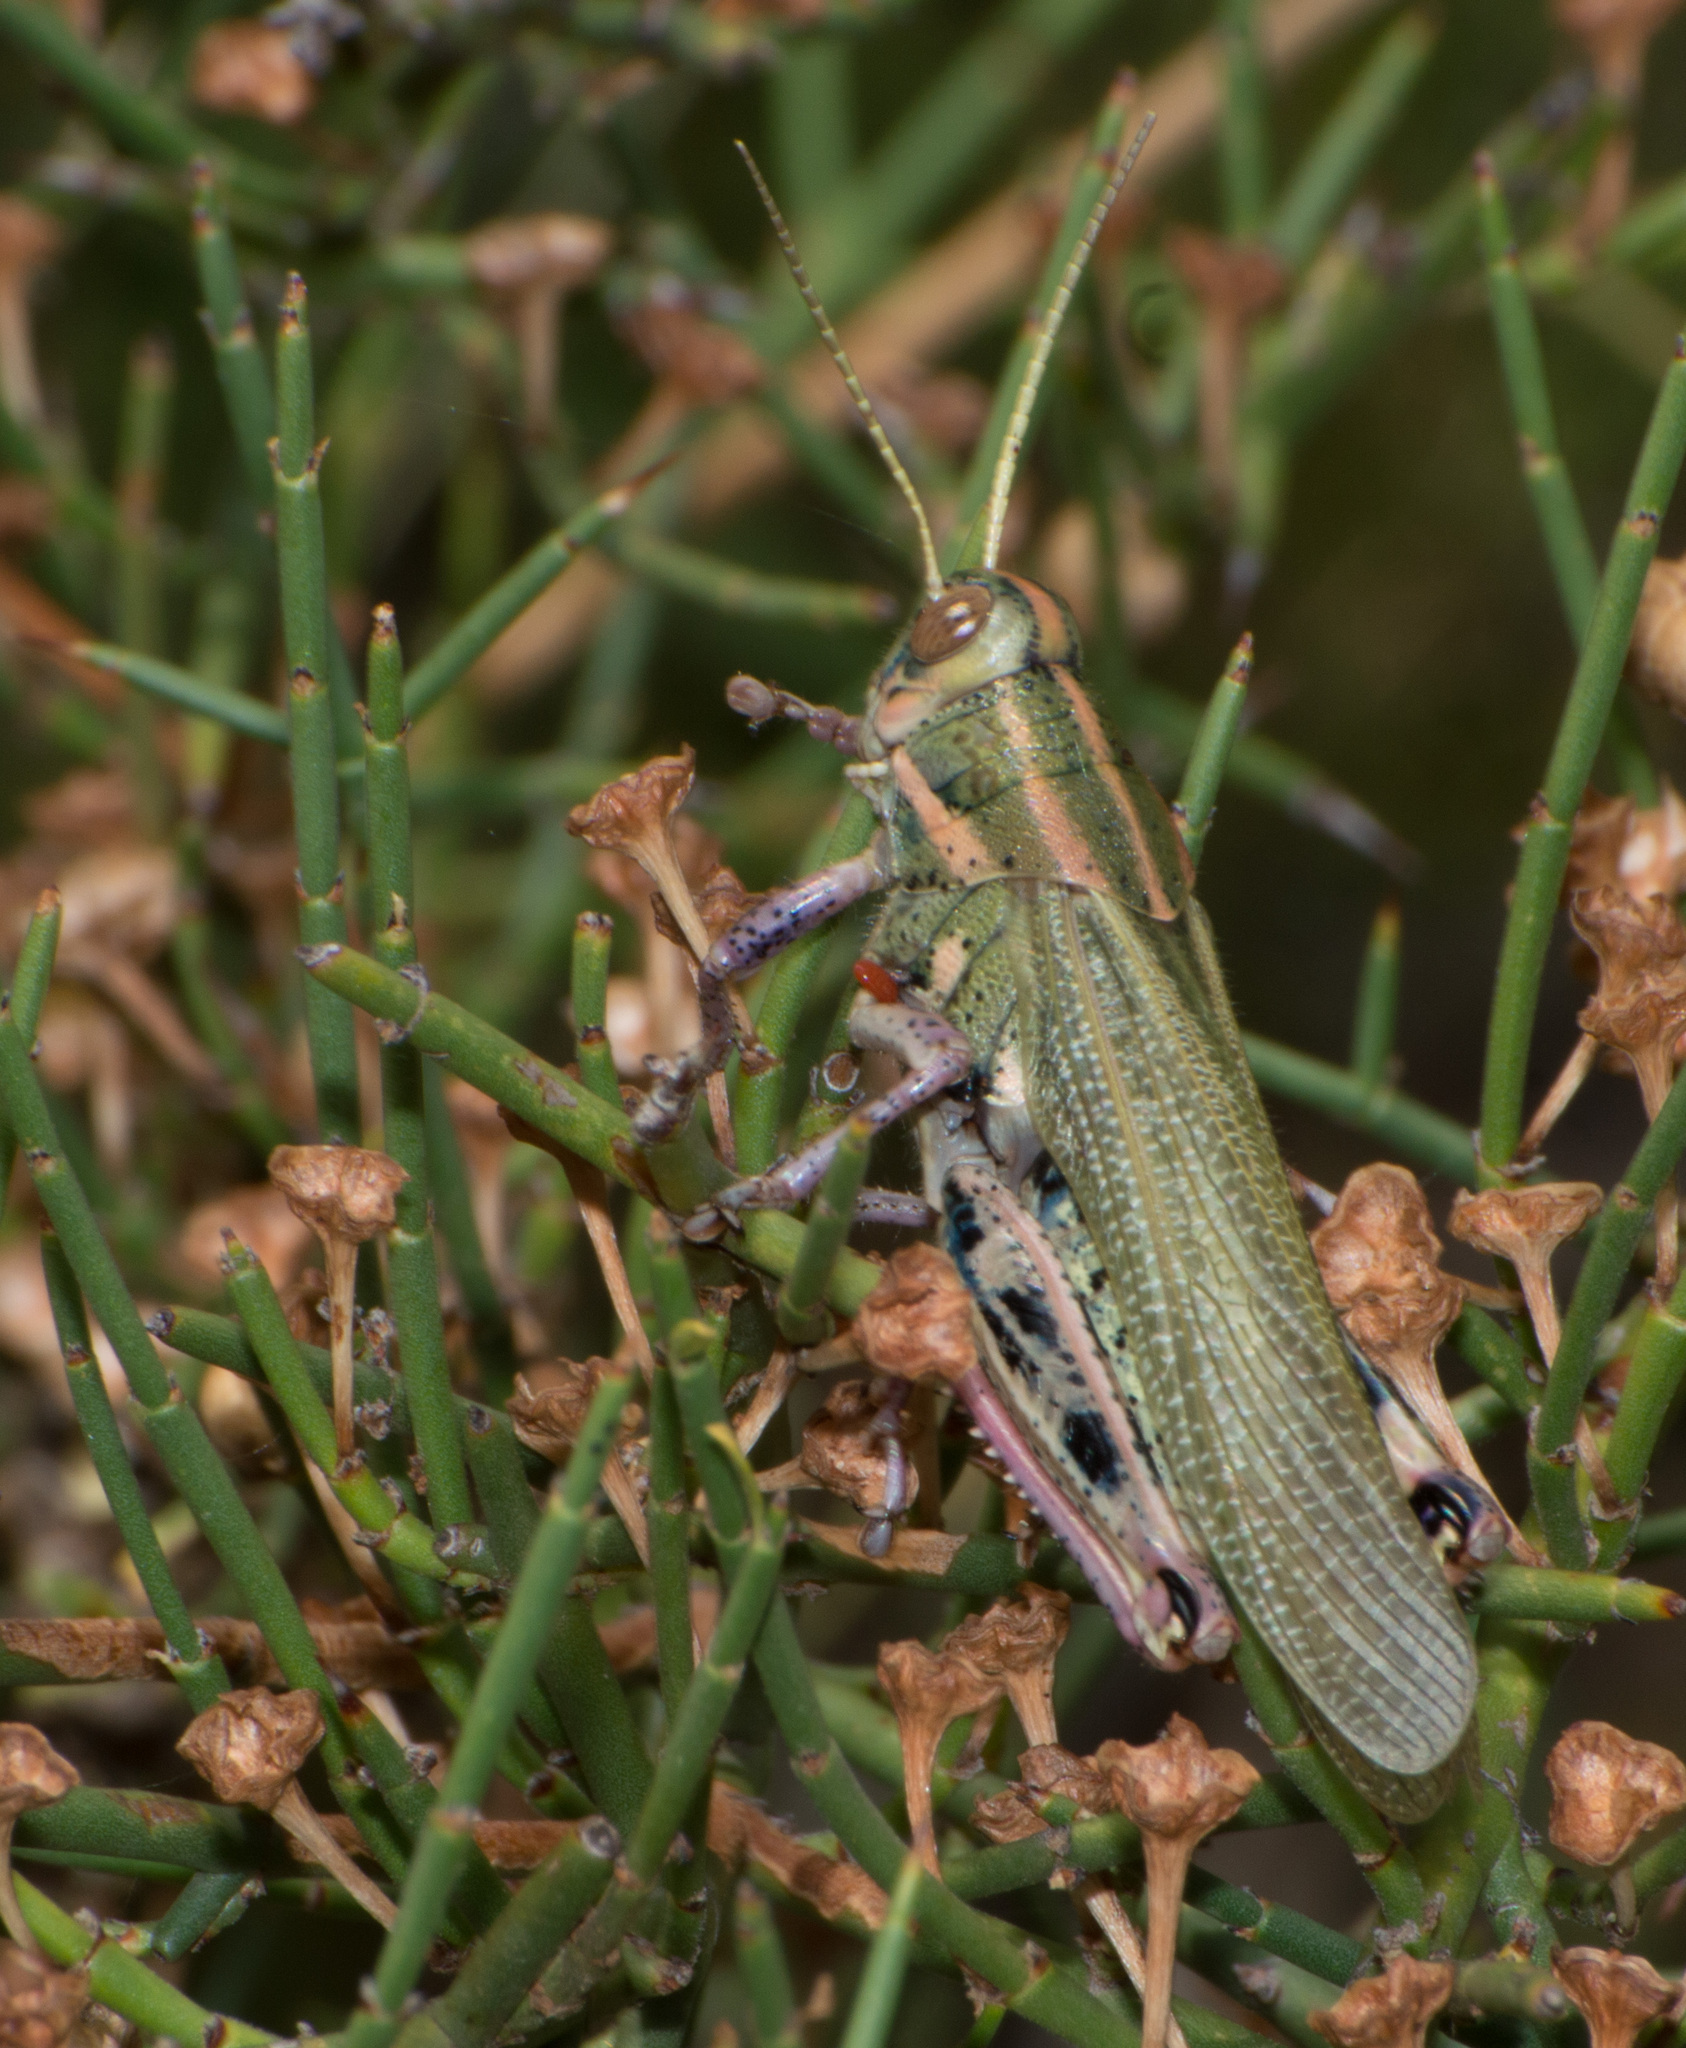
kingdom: Animalia
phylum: Arthropoda
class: Insecta
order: Orthoptera
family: Romaleidae
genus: Diponthus
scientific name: Diponthus dispar
